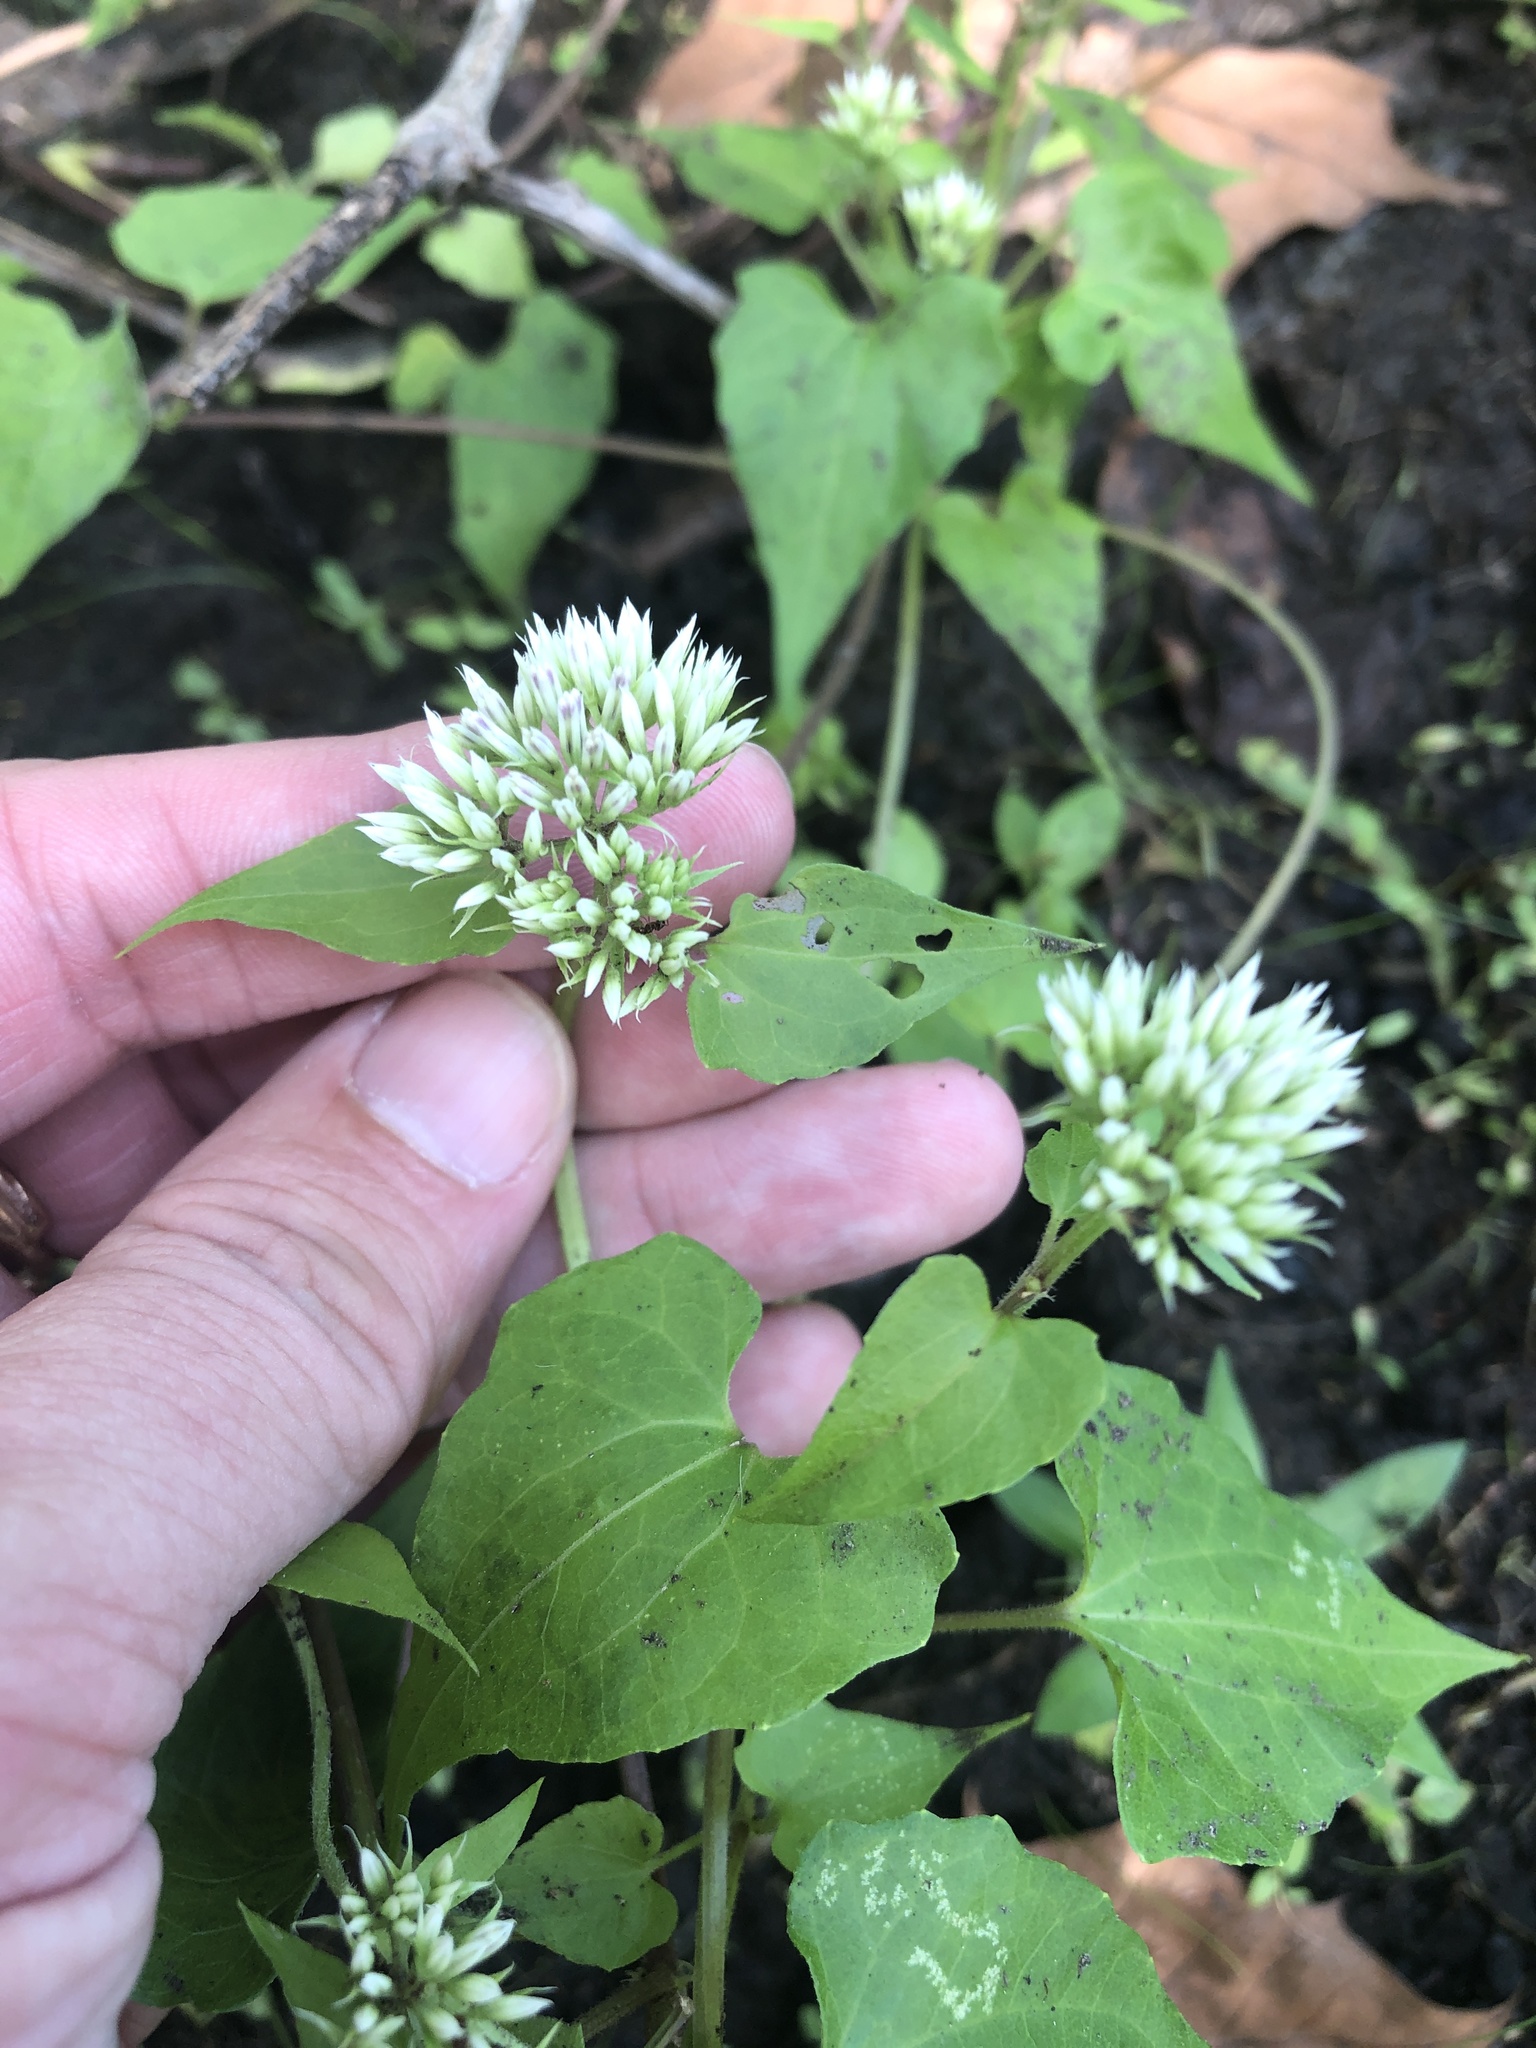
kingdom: Plantae
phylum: Tracheophyta
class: Magnoliopsida
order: Asterales
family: Asteraceae
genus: Mikania
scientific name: Mikania scandens
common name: Climbing hempvine
